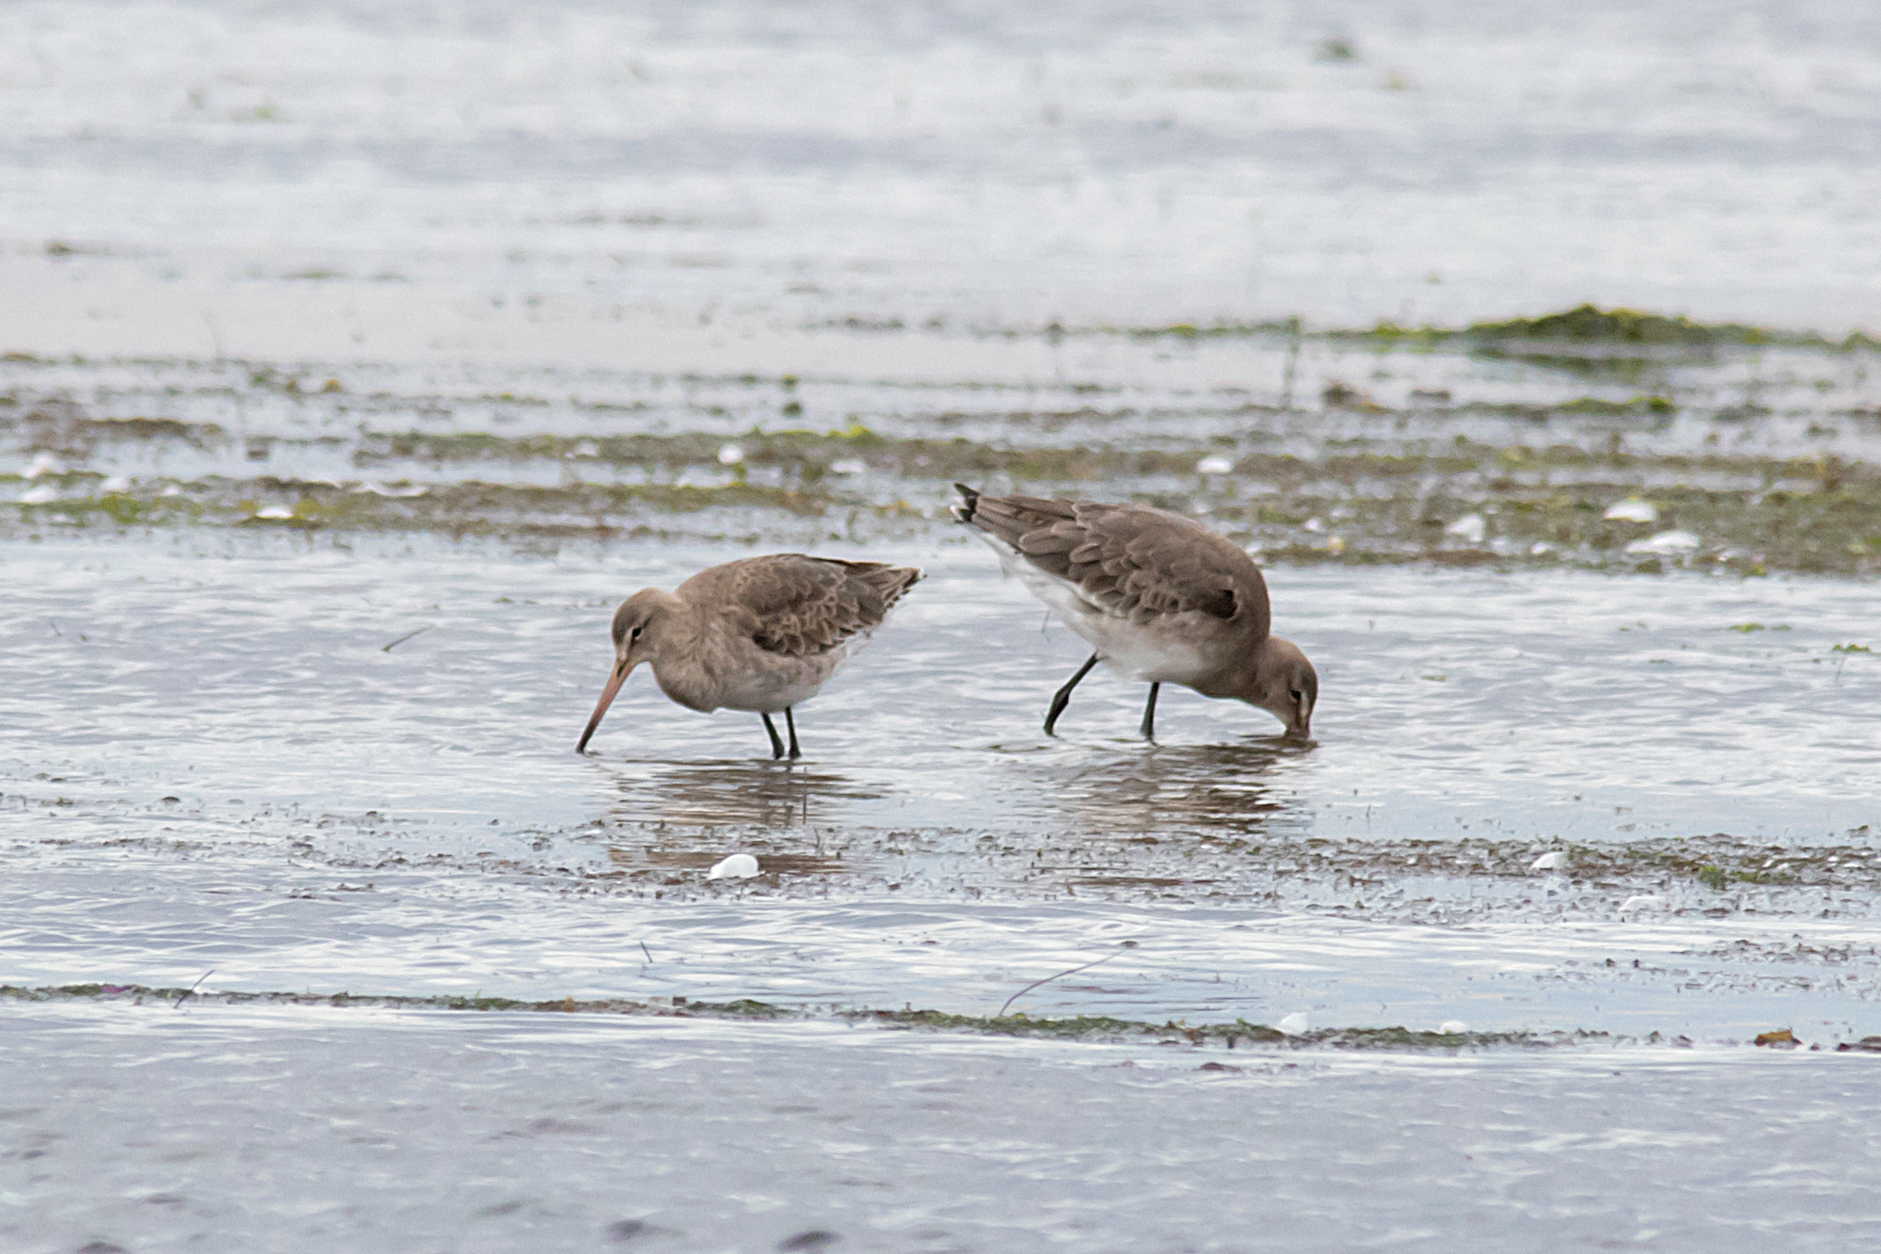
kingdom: Animalia
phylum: Chordata
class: Aves
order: Charadriiformes
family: Scolopacidae
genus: Limosa
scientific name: Limosa limosa
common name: Black-tailed godwit
